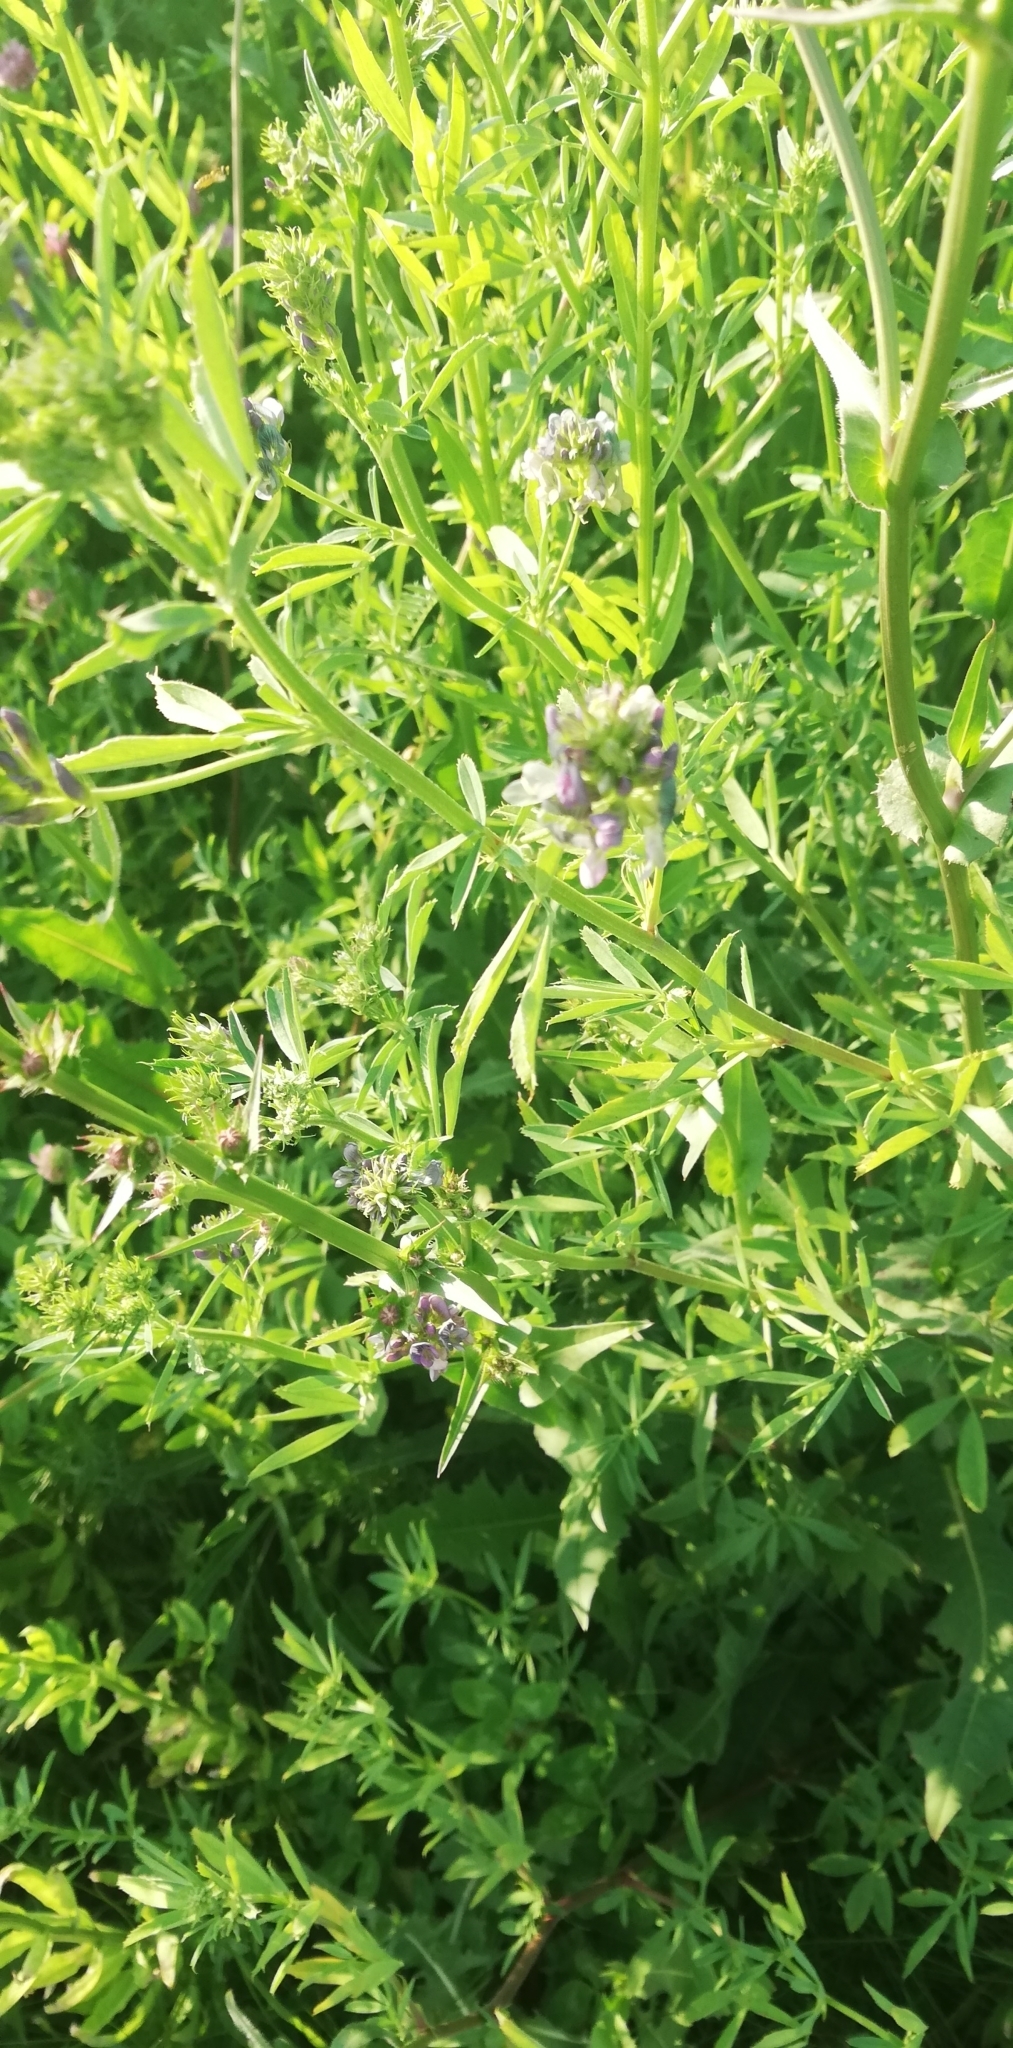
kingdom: Plantae
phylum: Tracheophyta
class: Magnoliopsida
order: Fabales
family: Fabaceae
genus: Medicago
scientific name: Medicago varia
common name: Sand lucerne
